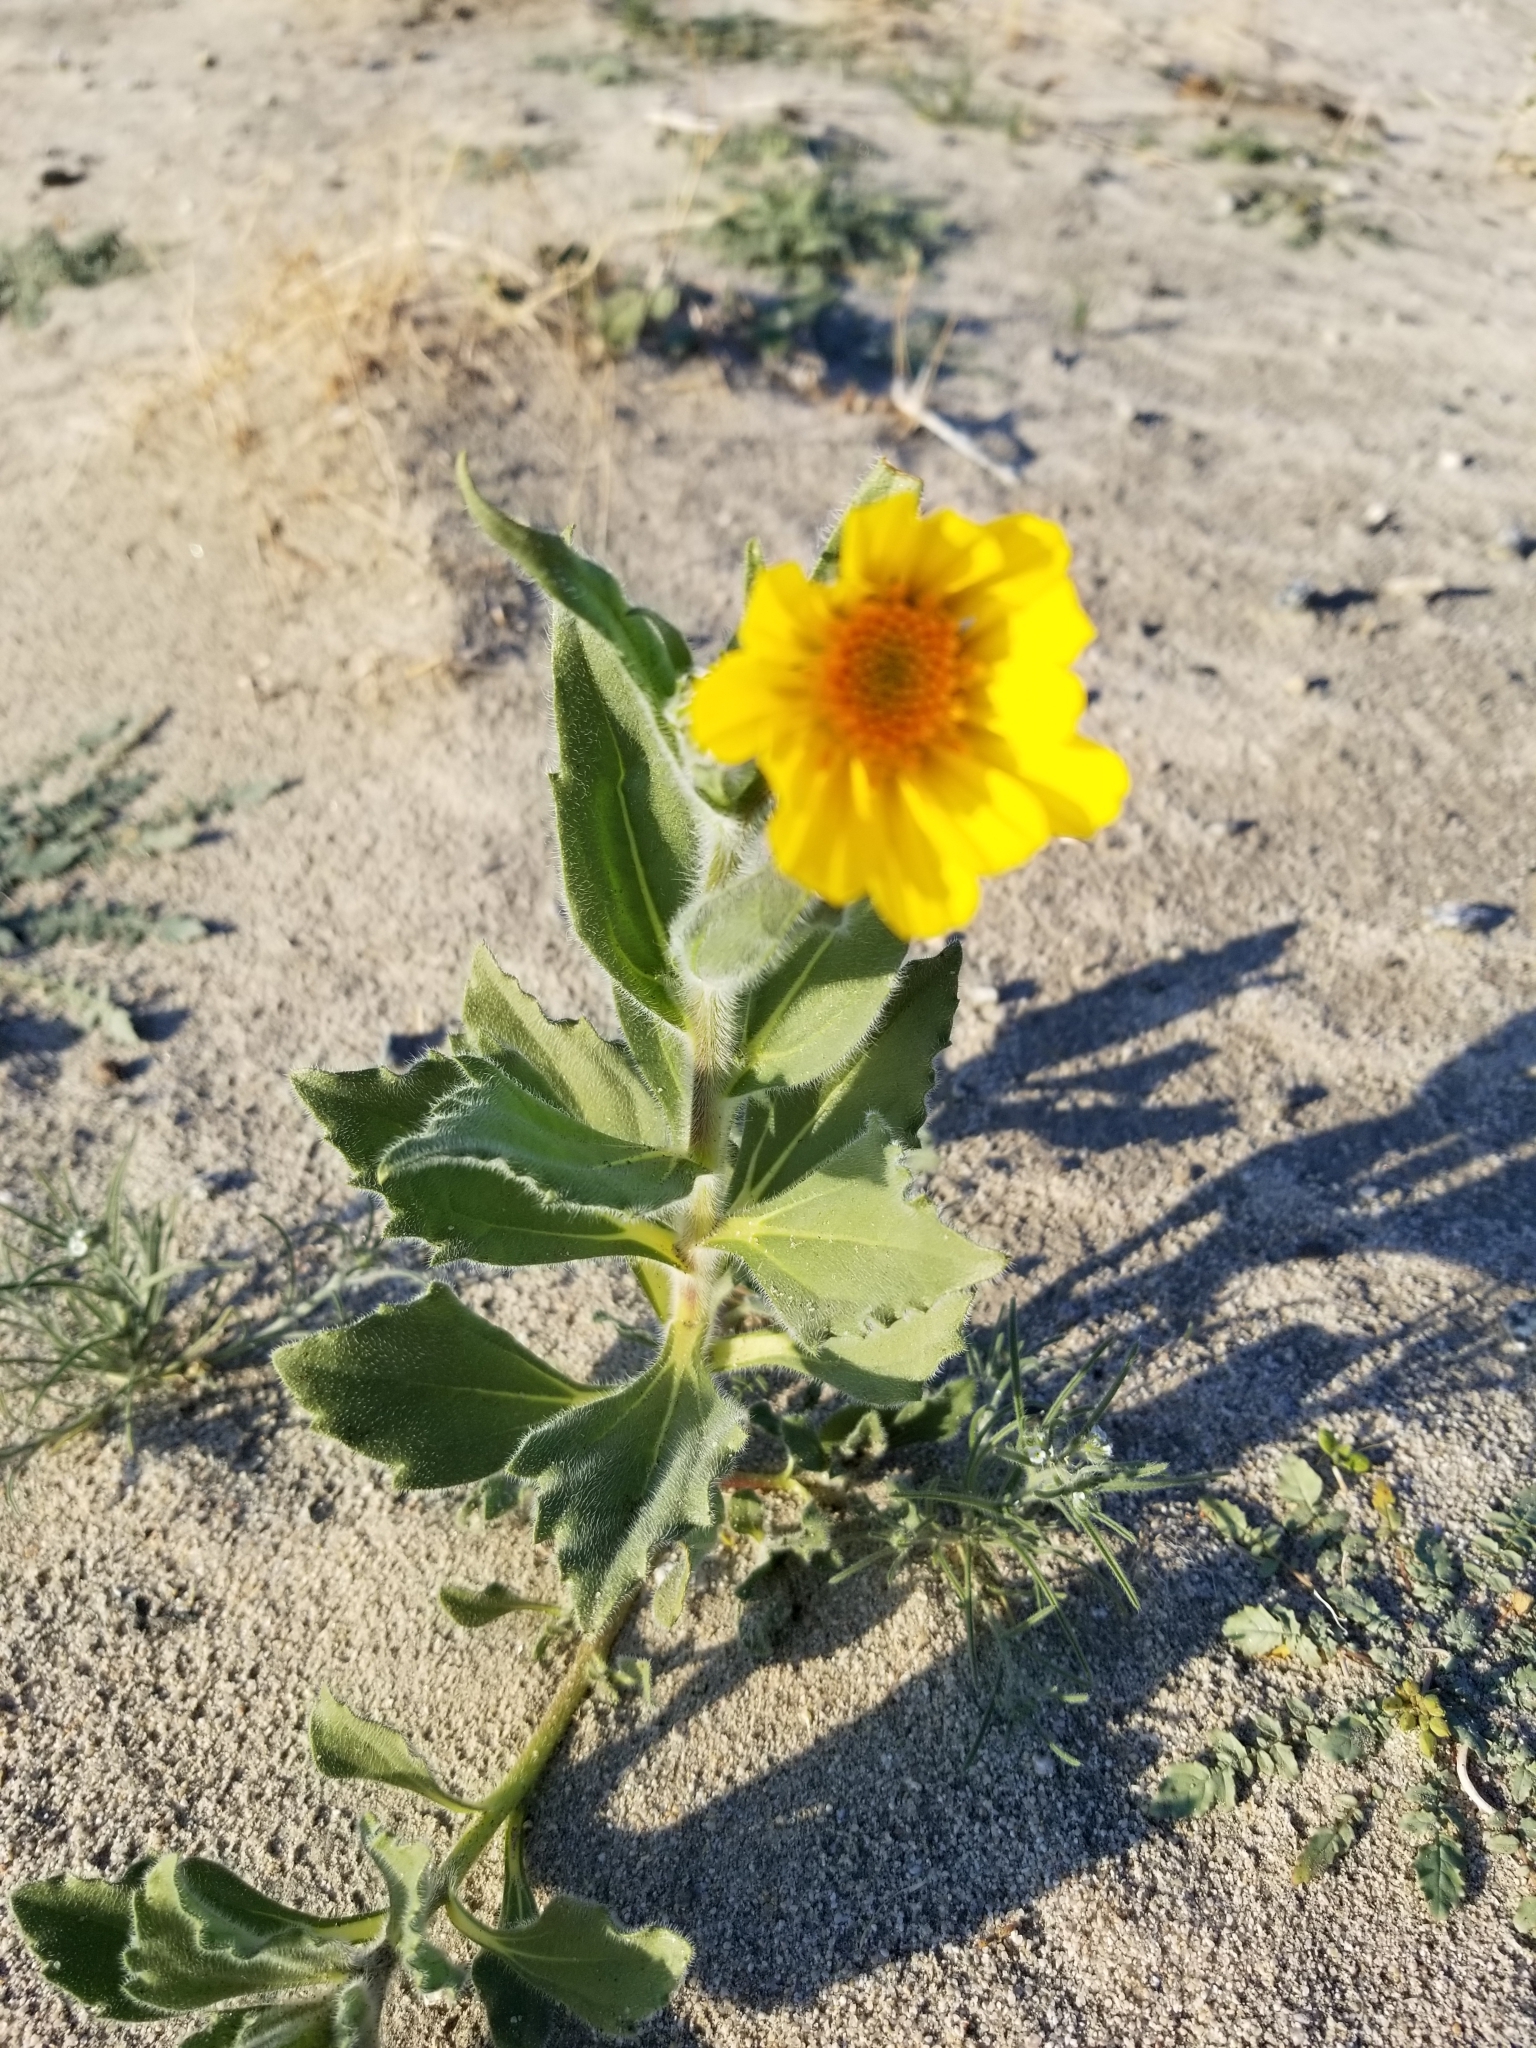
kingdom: Plantae
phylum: Tracheophyta
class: Magnoliopsida
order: Asterales
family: Asteraceae
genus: Geraea
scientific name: Geraea canescens
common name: Desert-gold
